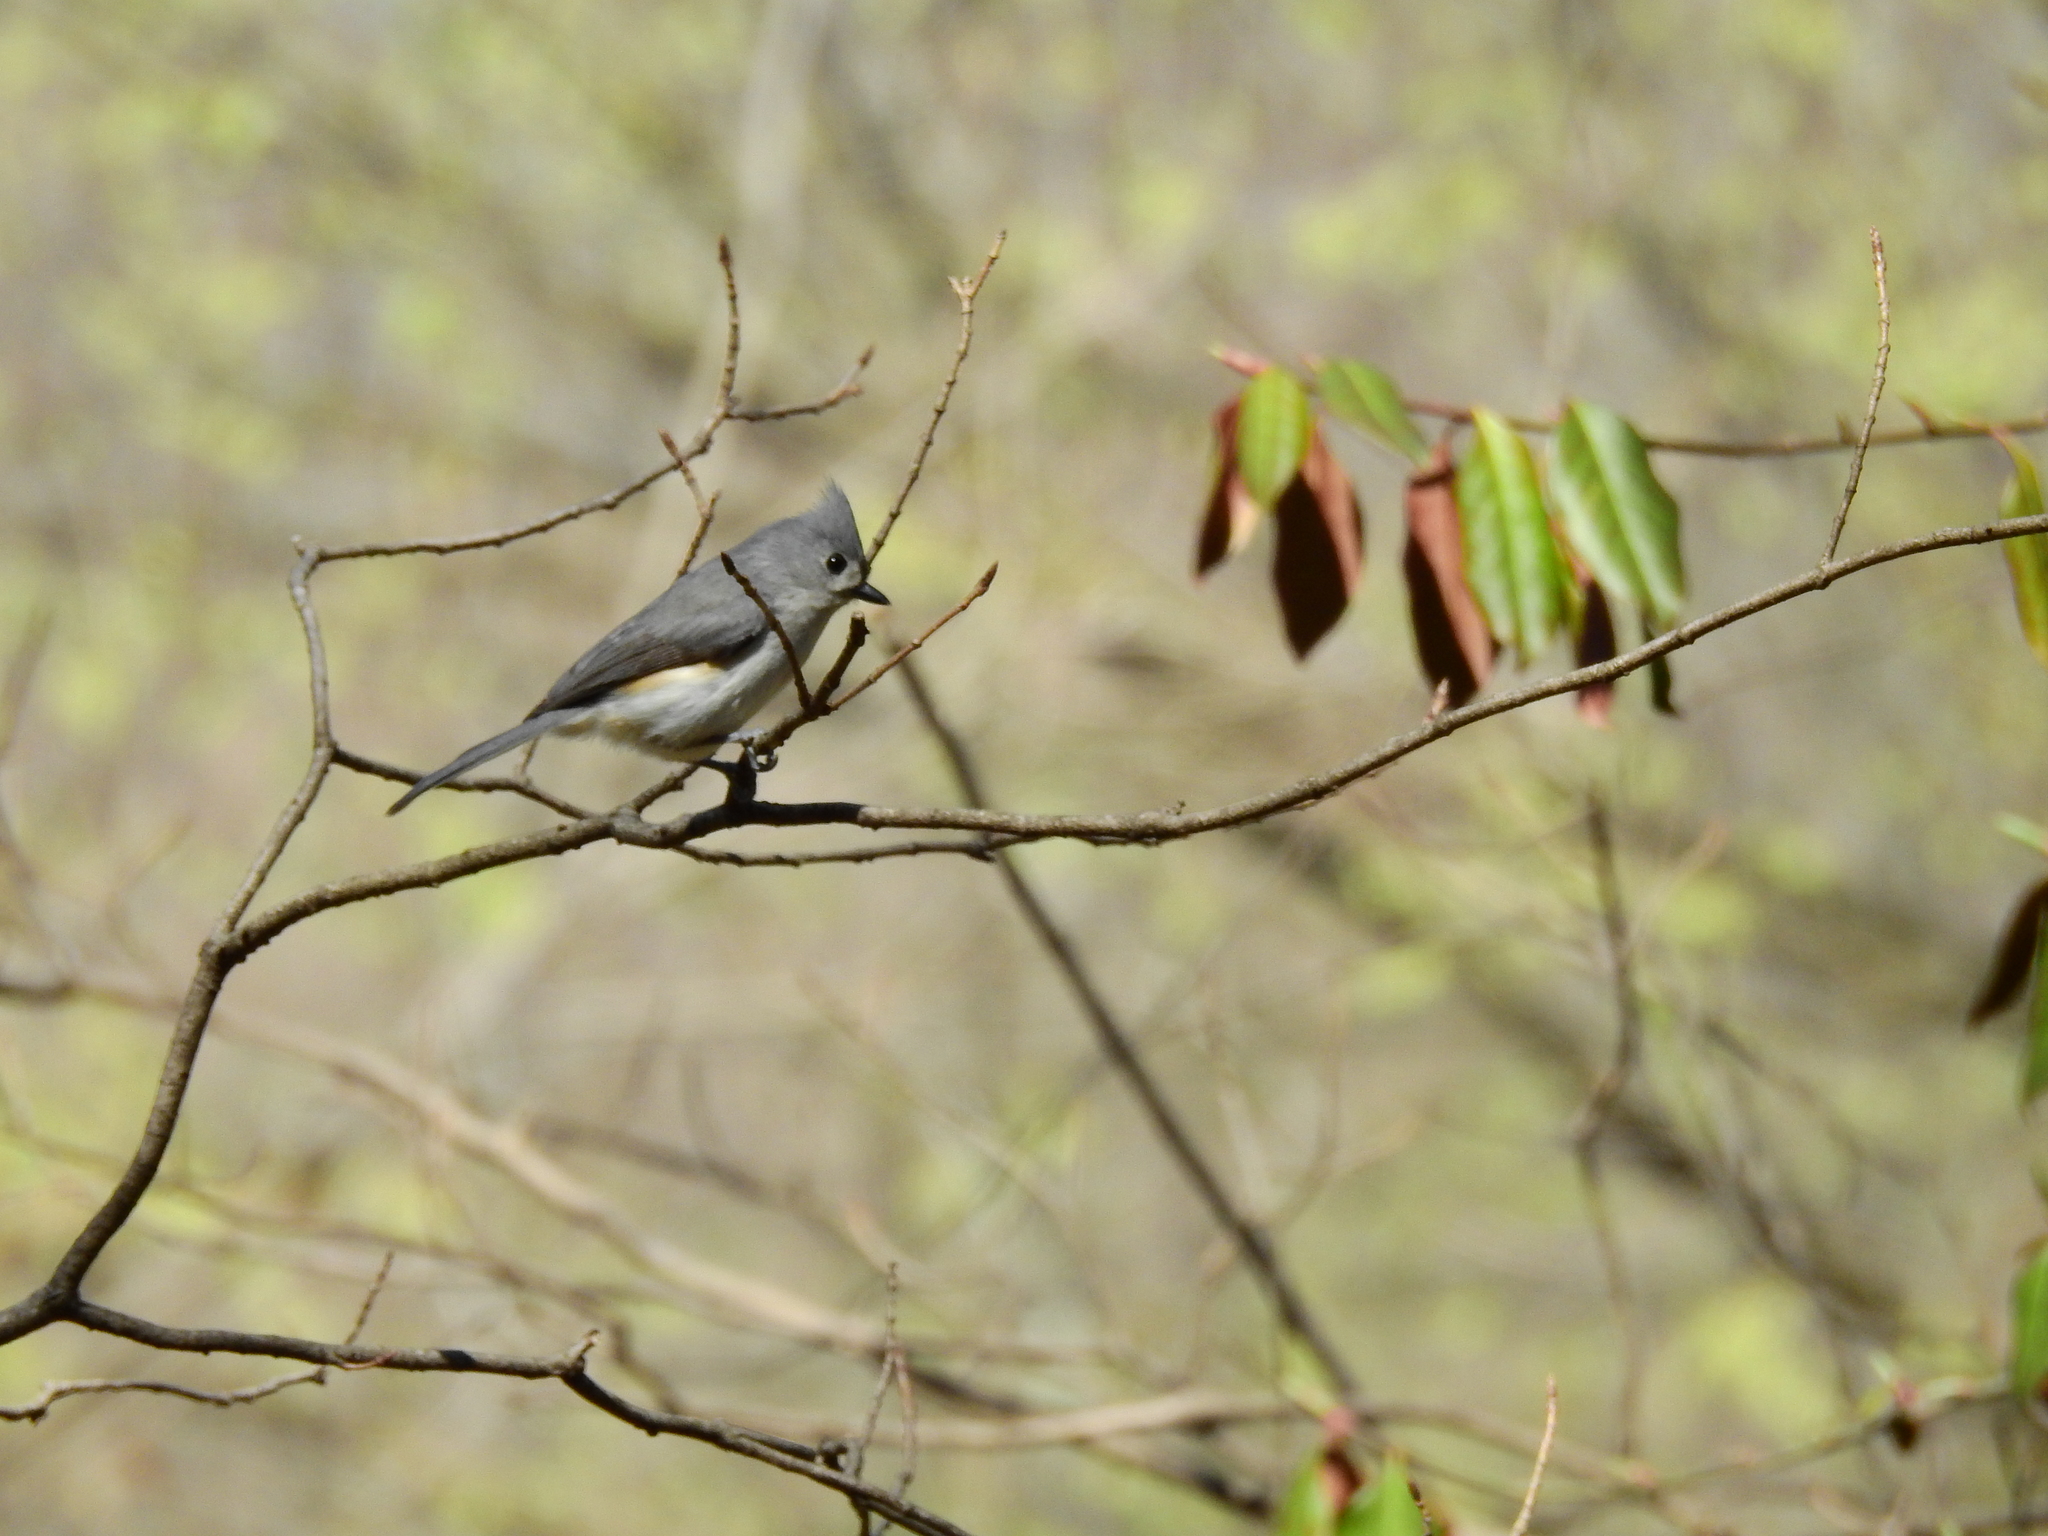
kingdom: Animalia
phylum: Chordata
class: Aves
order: Passeriformes
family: Paridae
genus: Baeolophus
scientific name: Baeolophus bicolor
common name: Tufted titmouse
